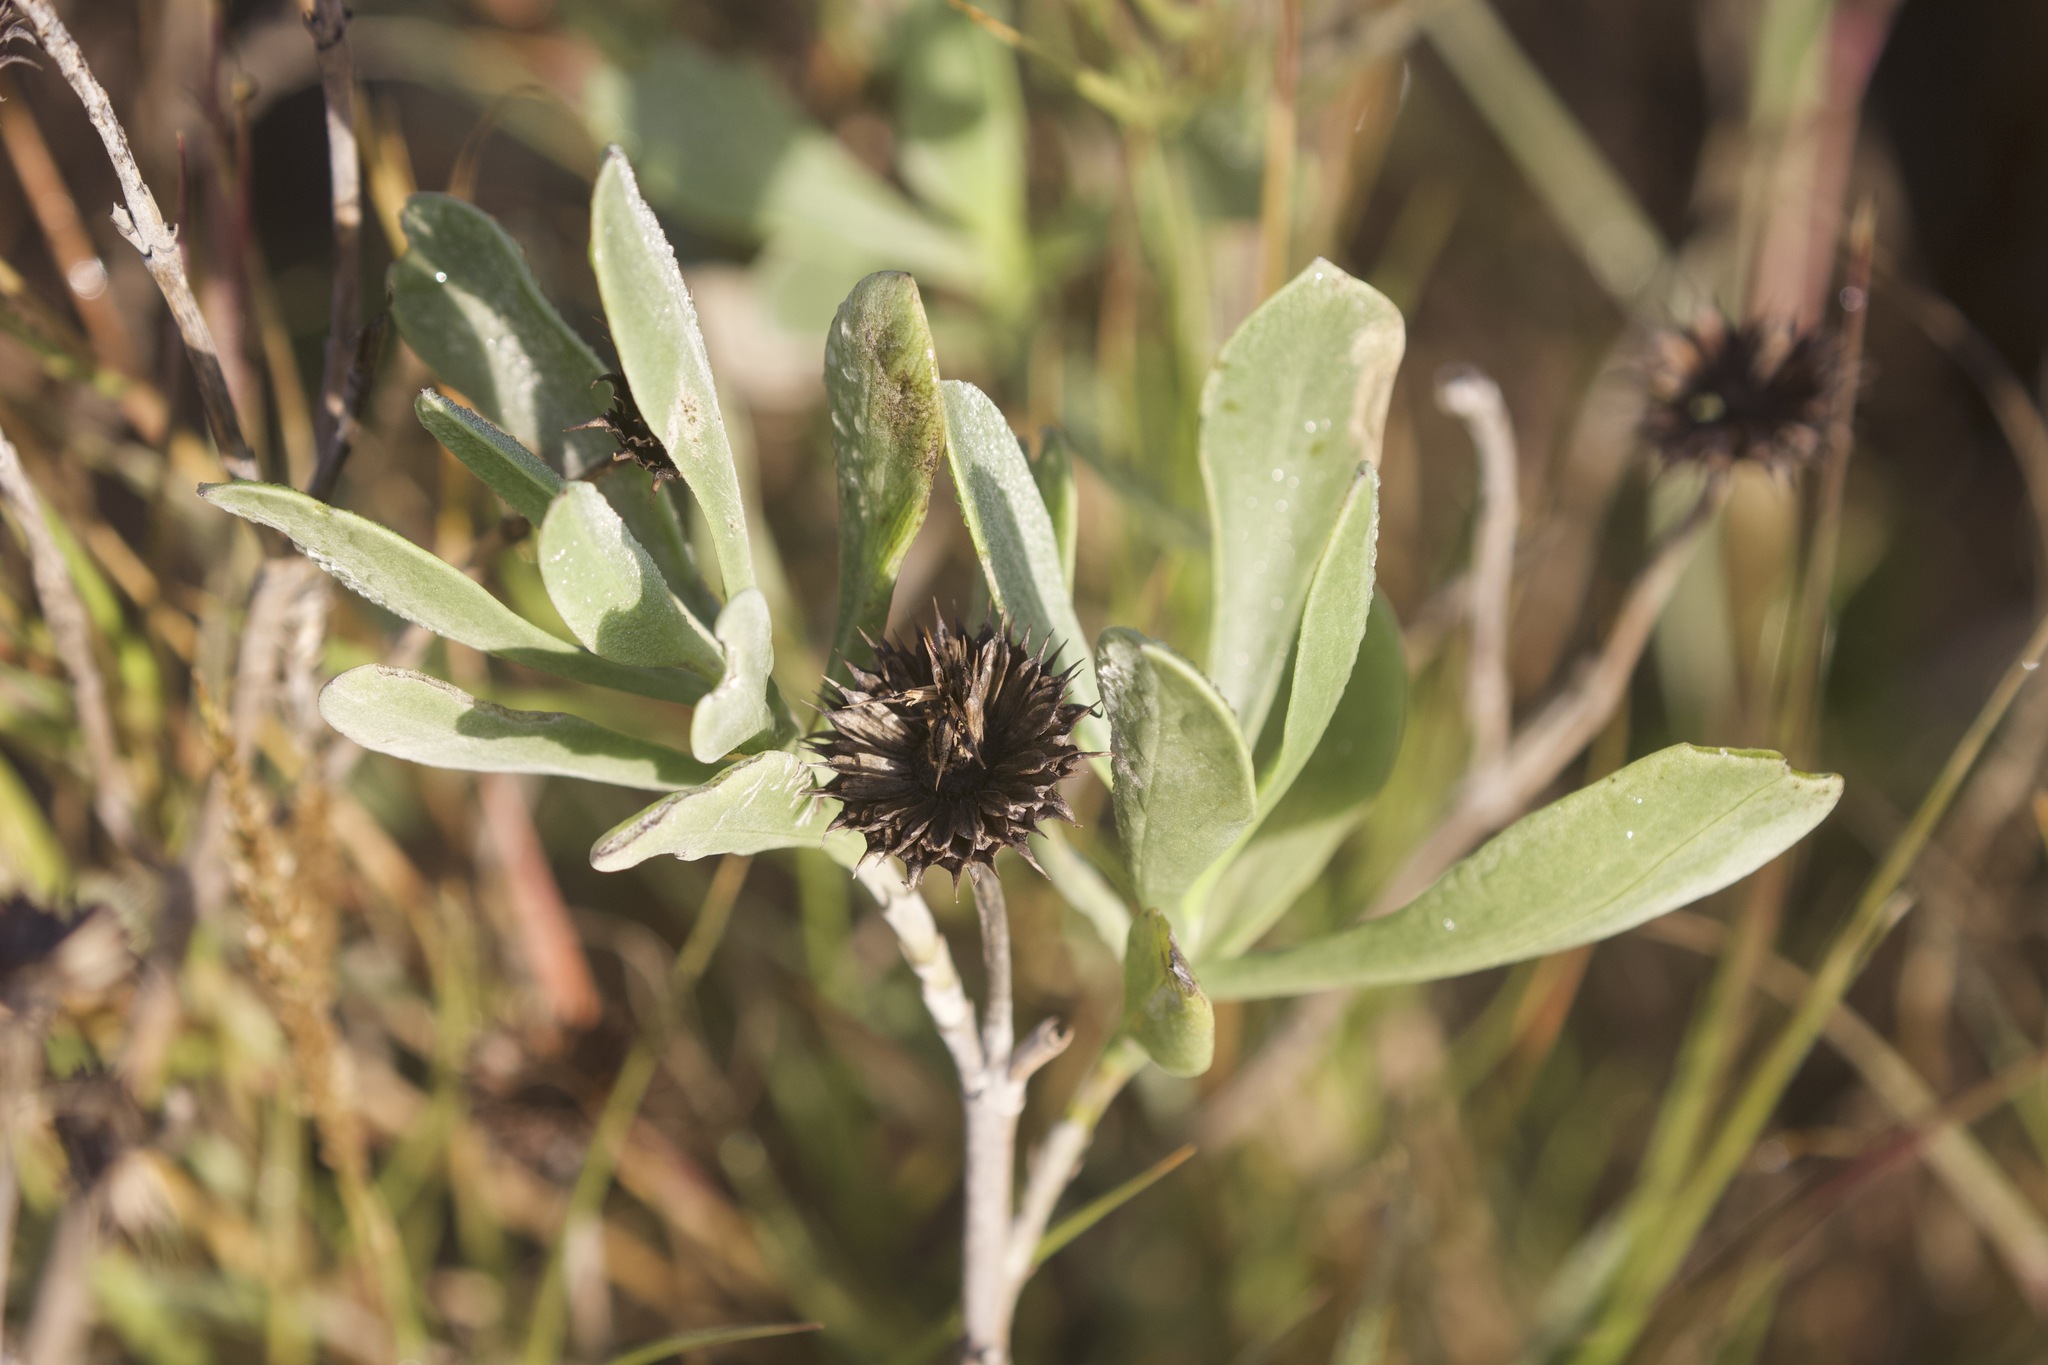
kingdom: Plantae
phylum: Tracheophyta
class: Magnoliopsida
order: Asterales
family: Asteraceae
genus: Borrichia
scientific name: Borrichia frutescens
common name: Sea oxeye
